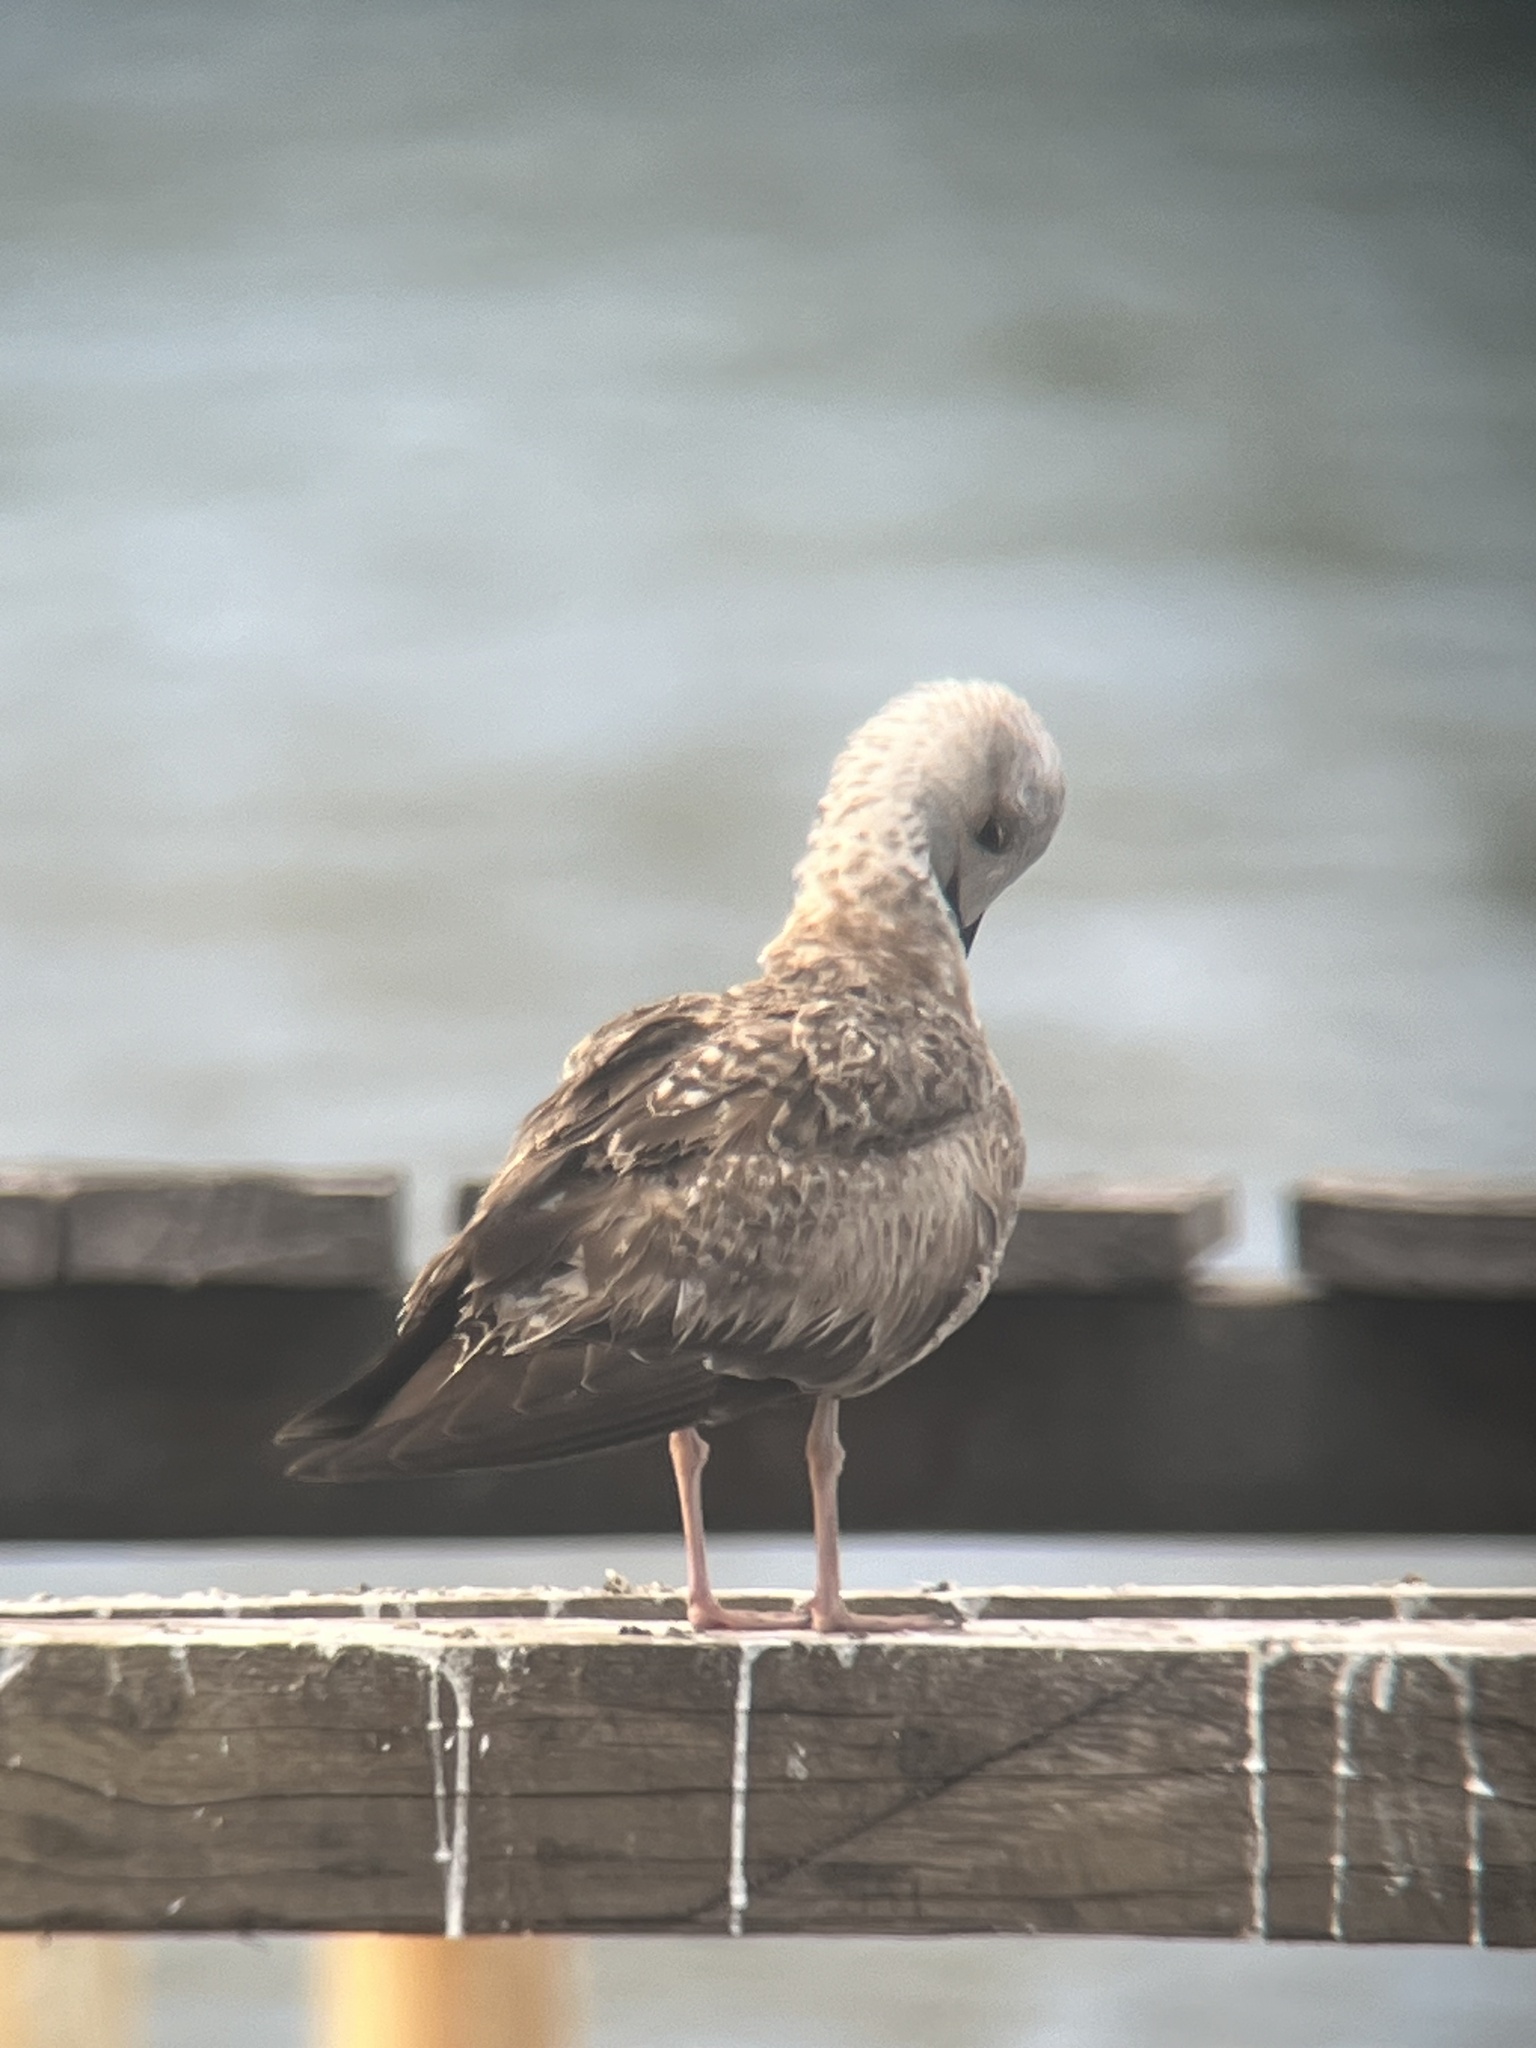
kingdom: Animalia
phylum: Chordata
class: Aves
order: Charadriiformes
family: Laridae
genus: Larus
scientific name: Larus fuscus
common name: Lesser black-backed gull
